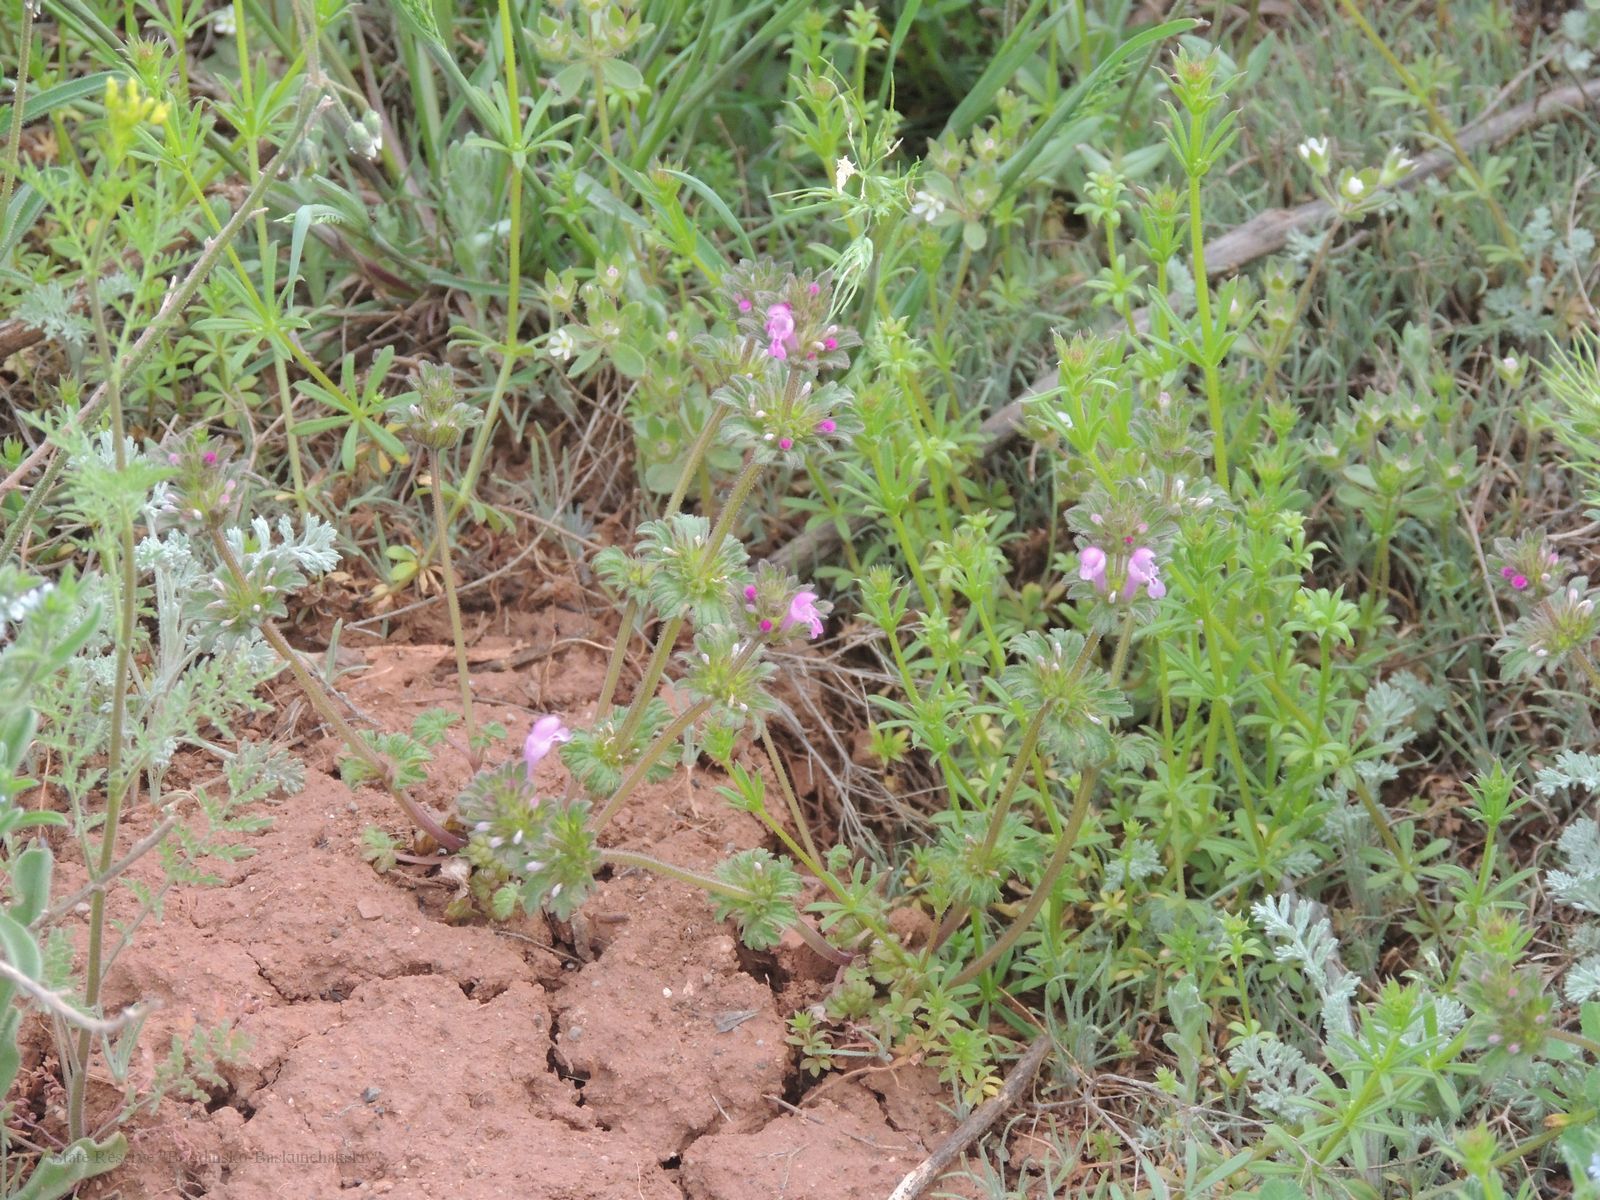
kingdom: Plantae
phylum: Tracheophyta
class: Magnoliopsida
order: Lamiales
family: Lamiaceae
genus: Lamium
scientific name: Lamium amplexicaule
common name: Henbit dead-nettle
